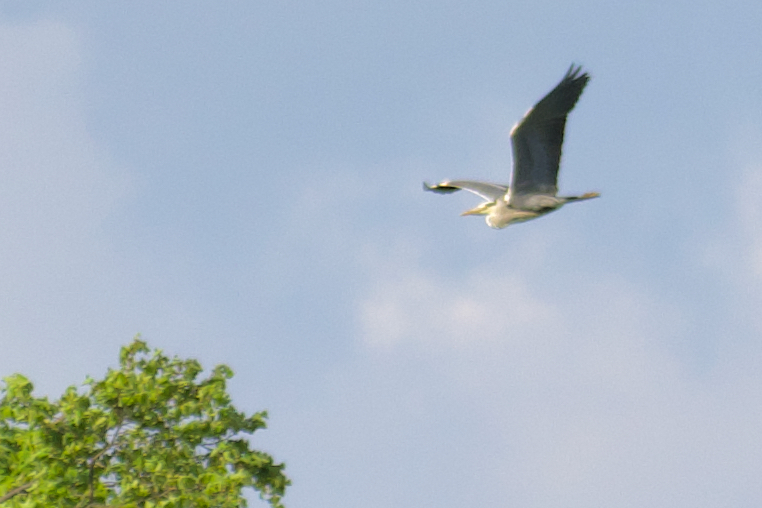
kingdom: Animalia
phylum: Chordata
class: Aves
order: Pelecaniformes
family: Ardeidae
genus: Ardea
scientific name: Ardea cinerea
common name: Grey heron
